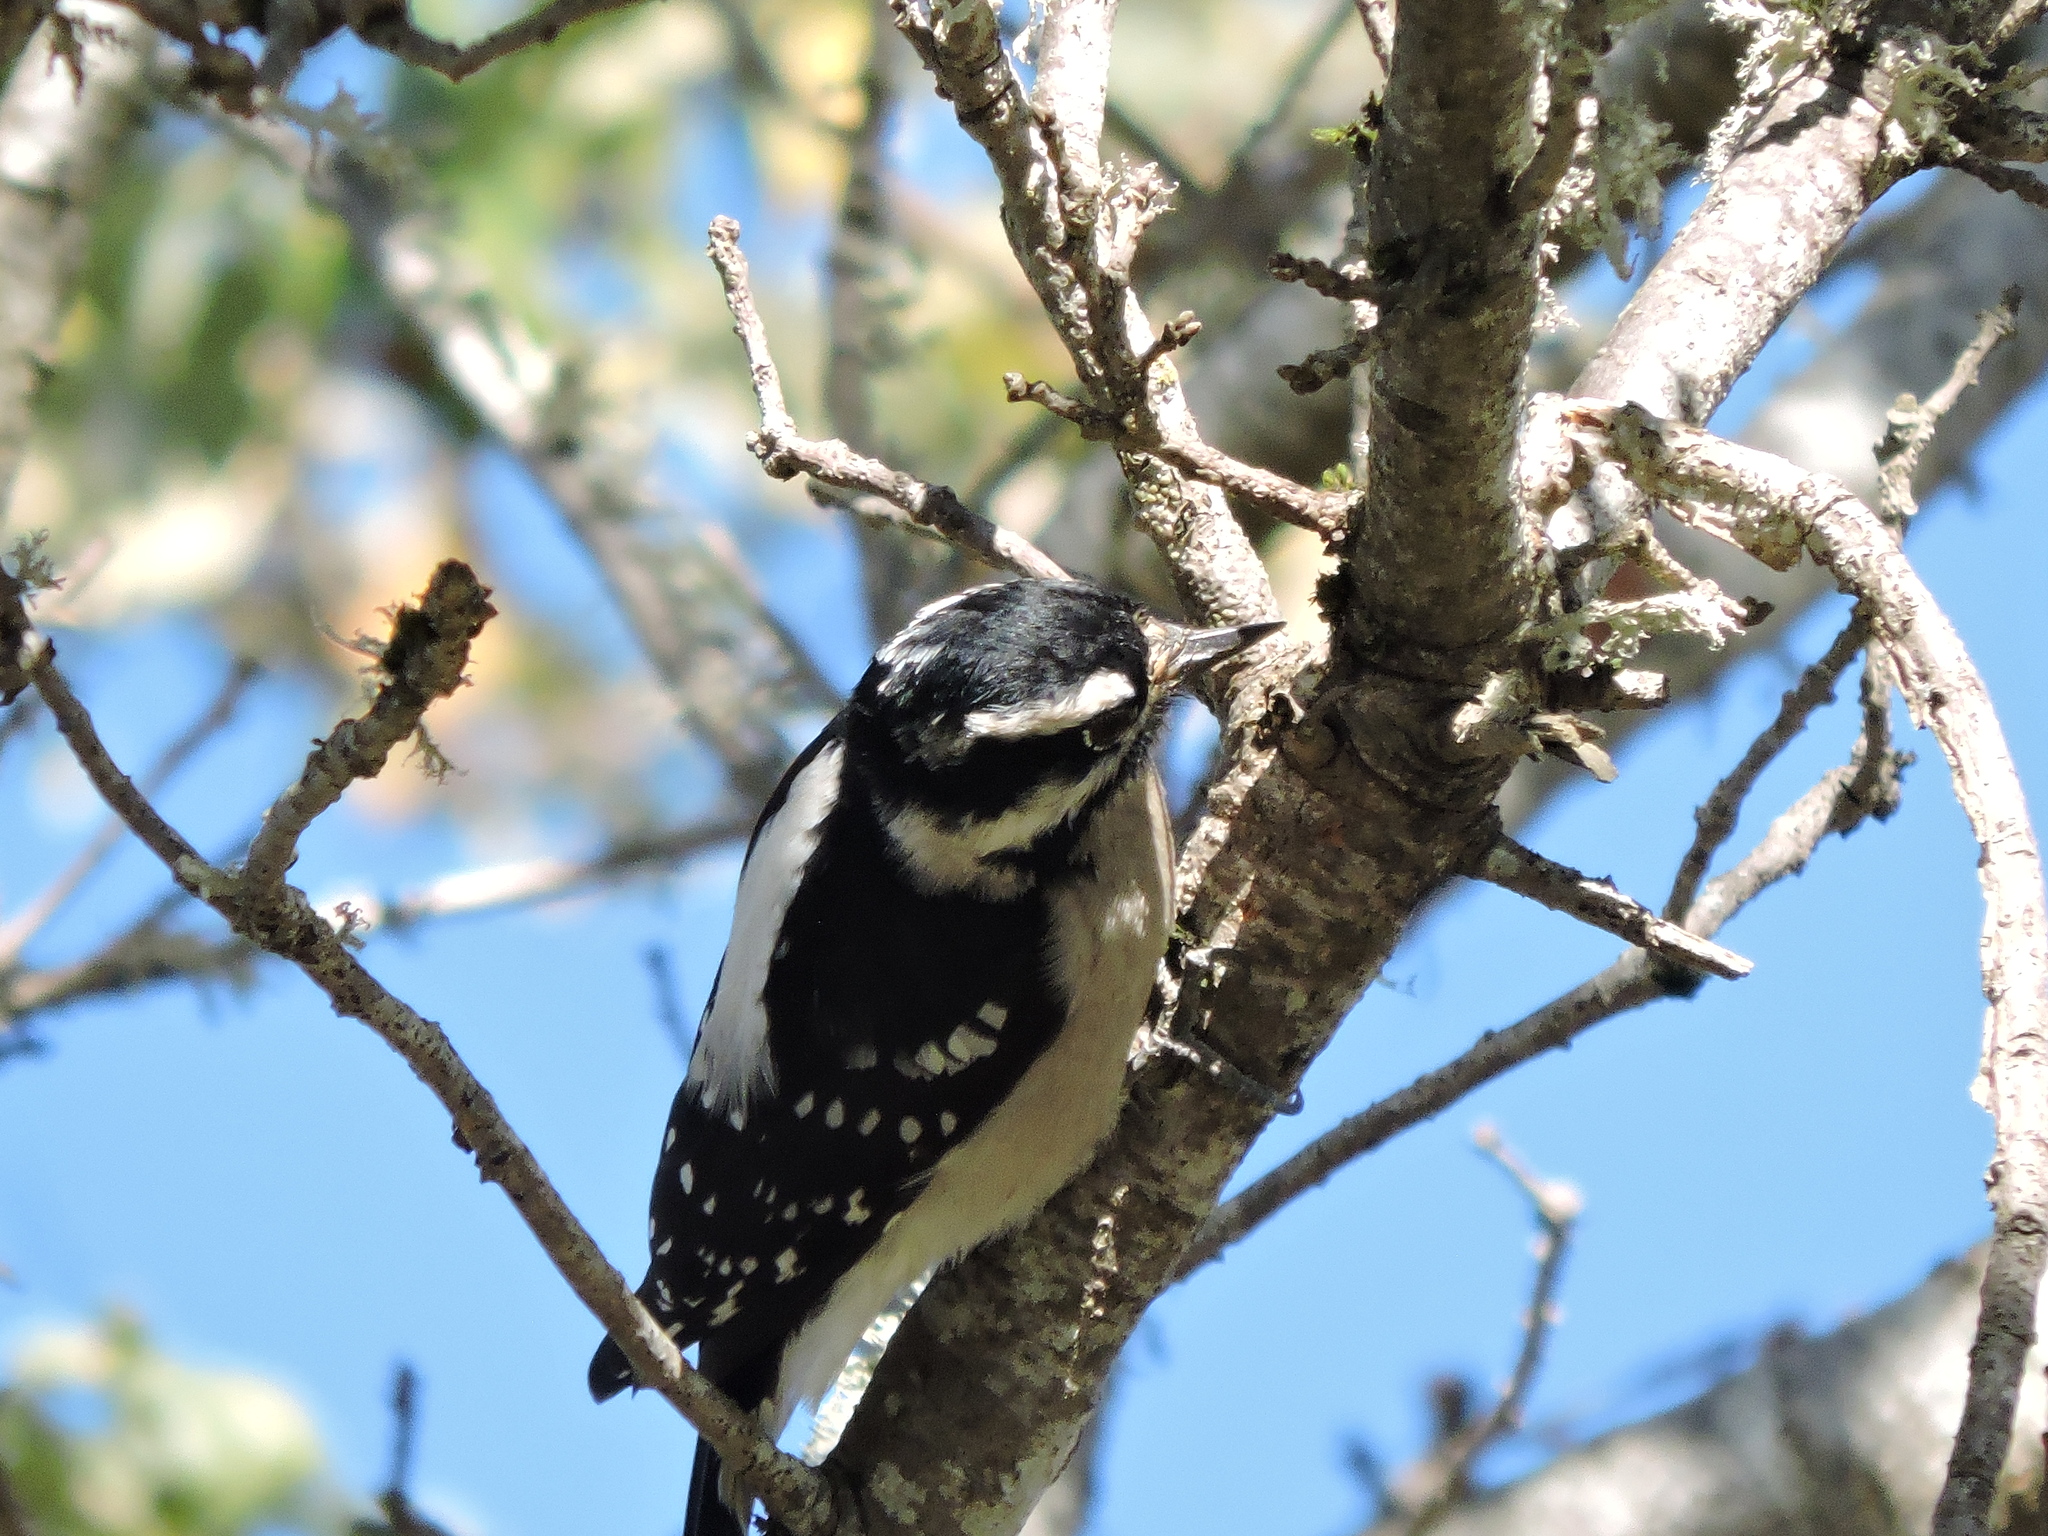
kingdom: Animalia
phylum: Chordata
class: Aves
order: Piciformes
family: Picidae
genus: Dryobates
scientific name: Dryobates pubescens
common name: Downy woodpecker
